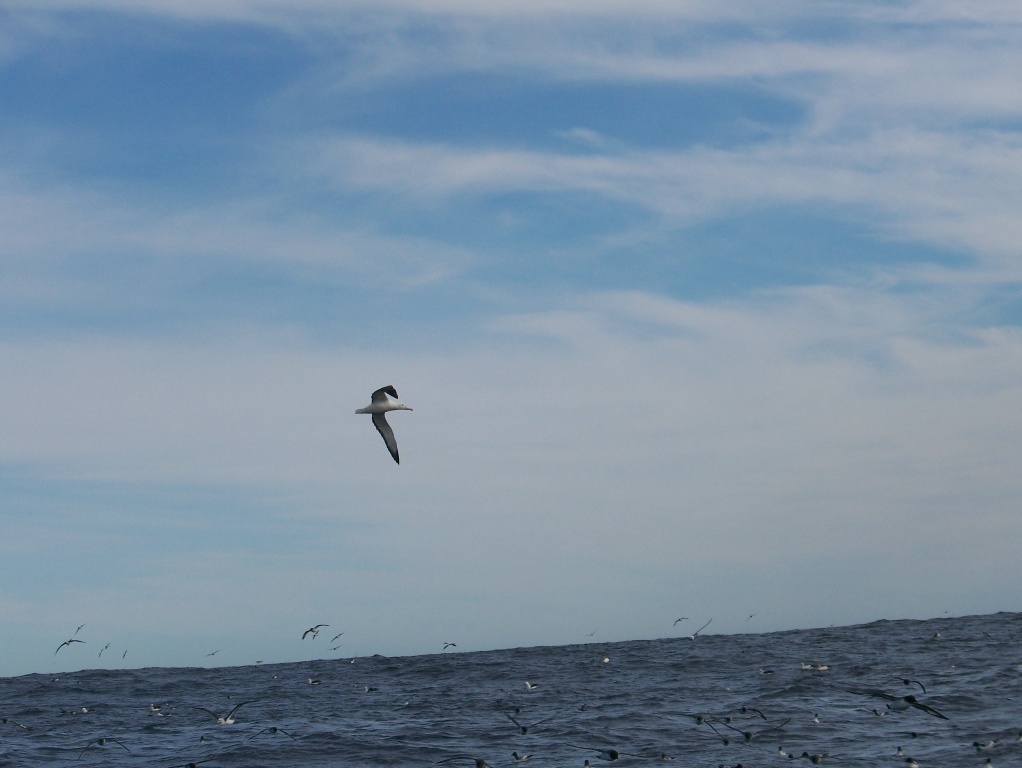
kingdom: Animalia
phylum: Chordata
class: Aves
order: Procellariiformes
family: Diomedeidae
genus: Diomedea
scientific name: Diomedea sanfordi
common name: Northern royal albatross
